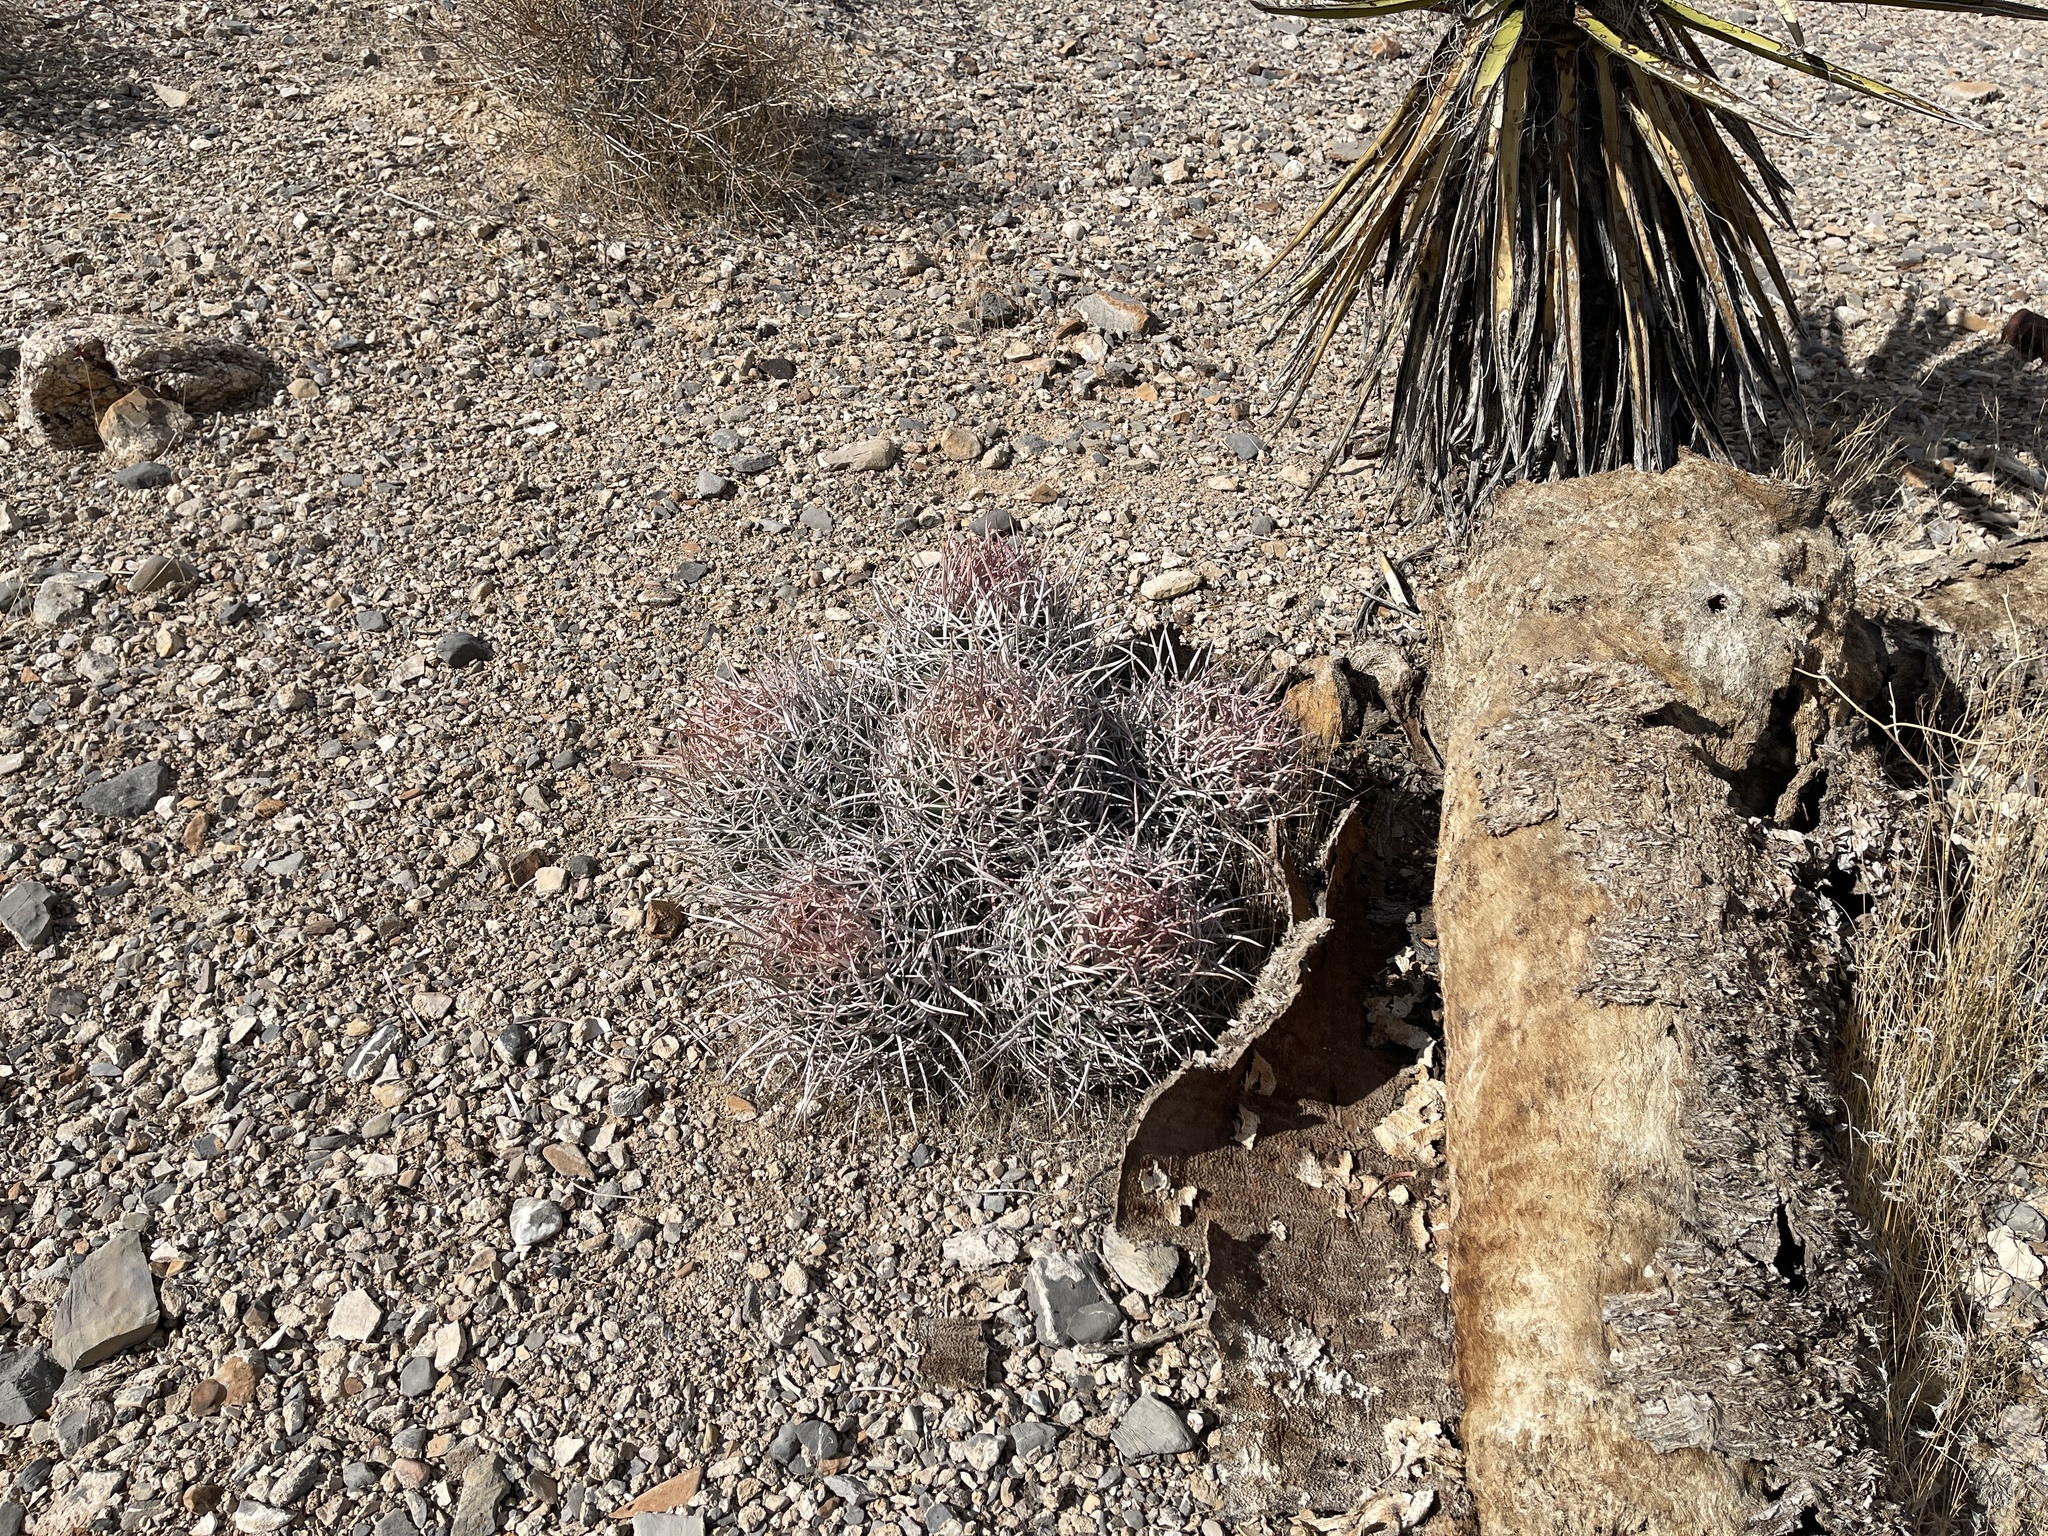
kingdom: Plantae
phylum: Tracheophyta
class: Magnoliopsida
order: Caryophyllales
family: Cactaceae
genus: Echinocactus
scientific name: Echinocactus polycephalus
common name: Cottontop cactus
